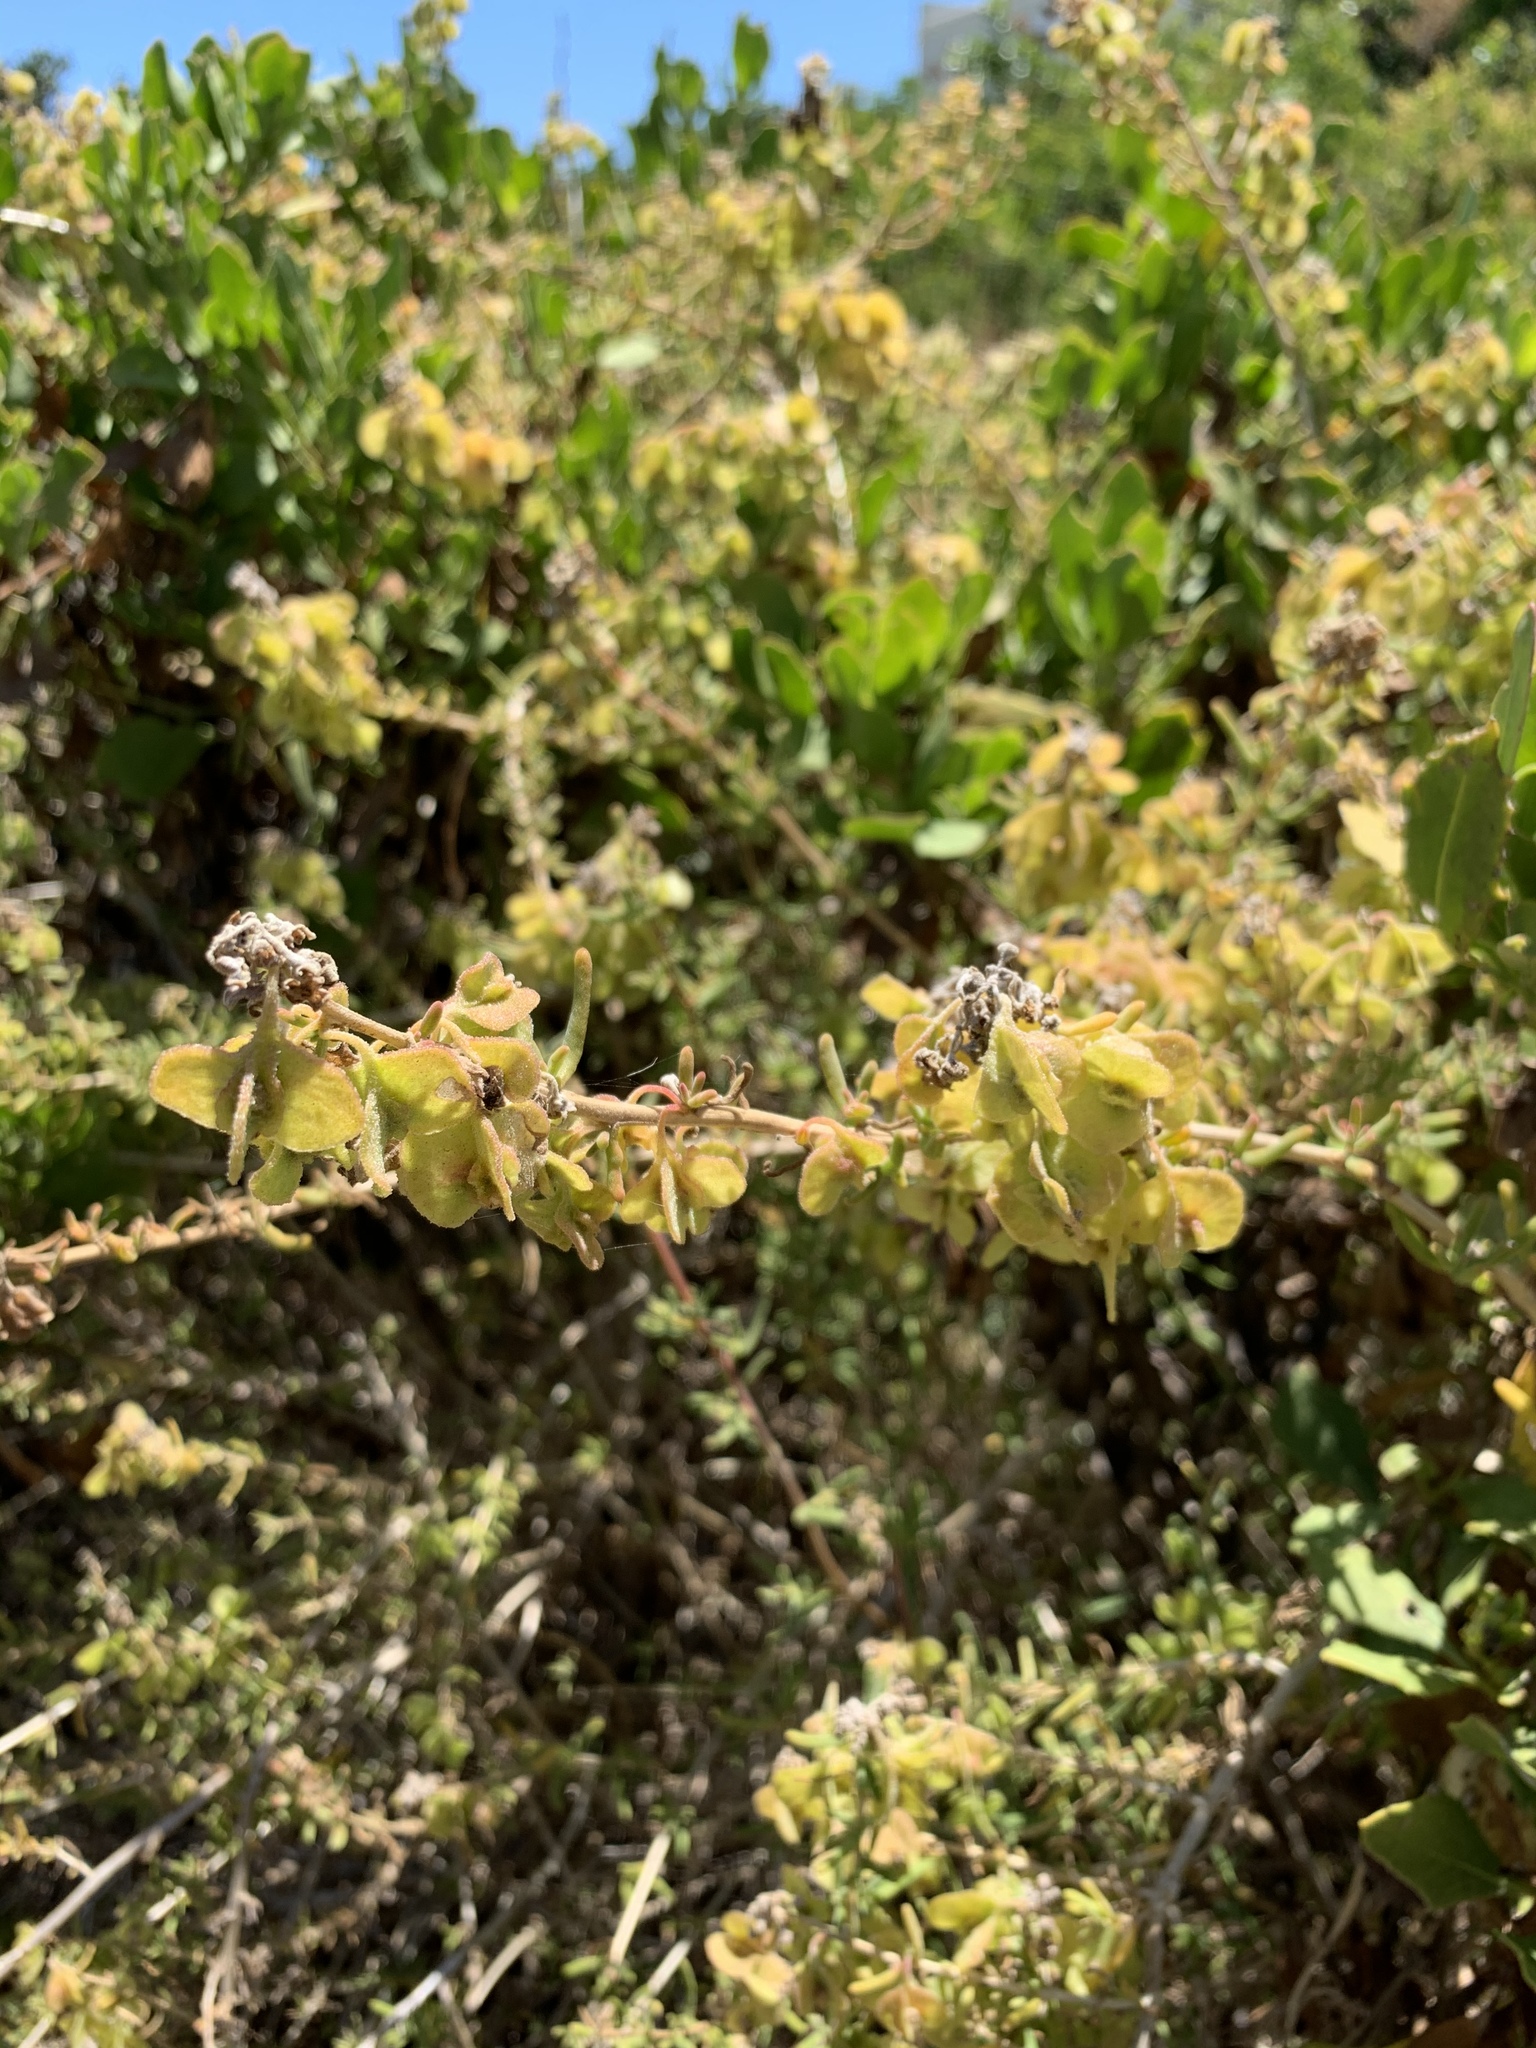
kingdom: Plantae
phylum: Tracheophyta
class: Magnoliopsida
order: Caryophyllales
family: Aizoaceae
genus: Tetragonia
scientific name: Tetragonia fruticosa
